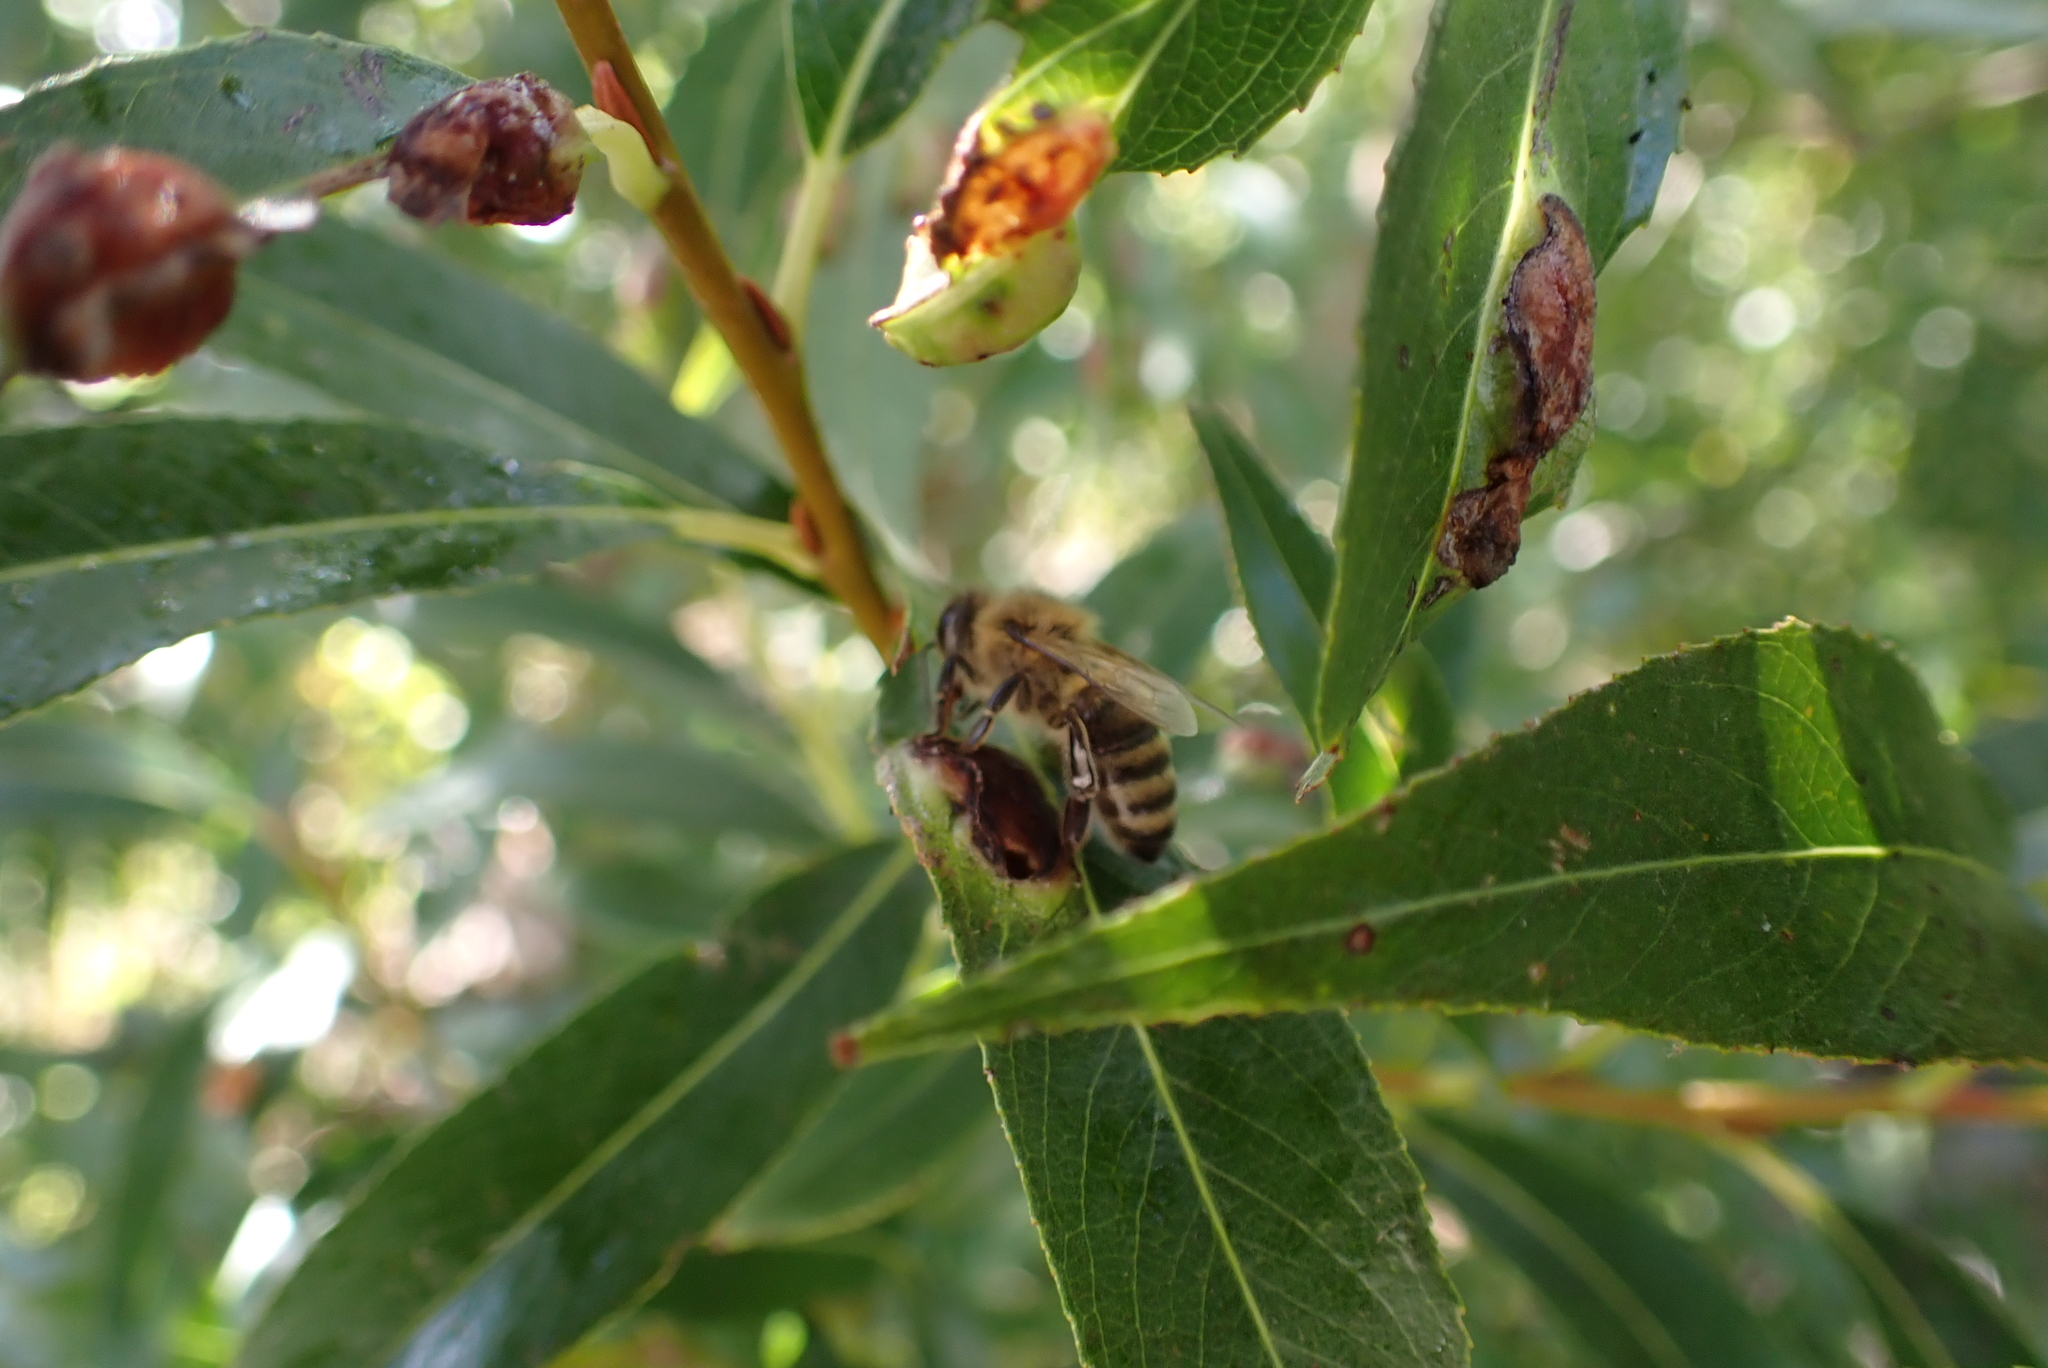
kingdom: Animalia
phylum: Arthropoda
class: Insecta
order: Hymenoptera
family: Apidae
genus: Apis
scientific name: Apis mellifera
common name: Honey bee
